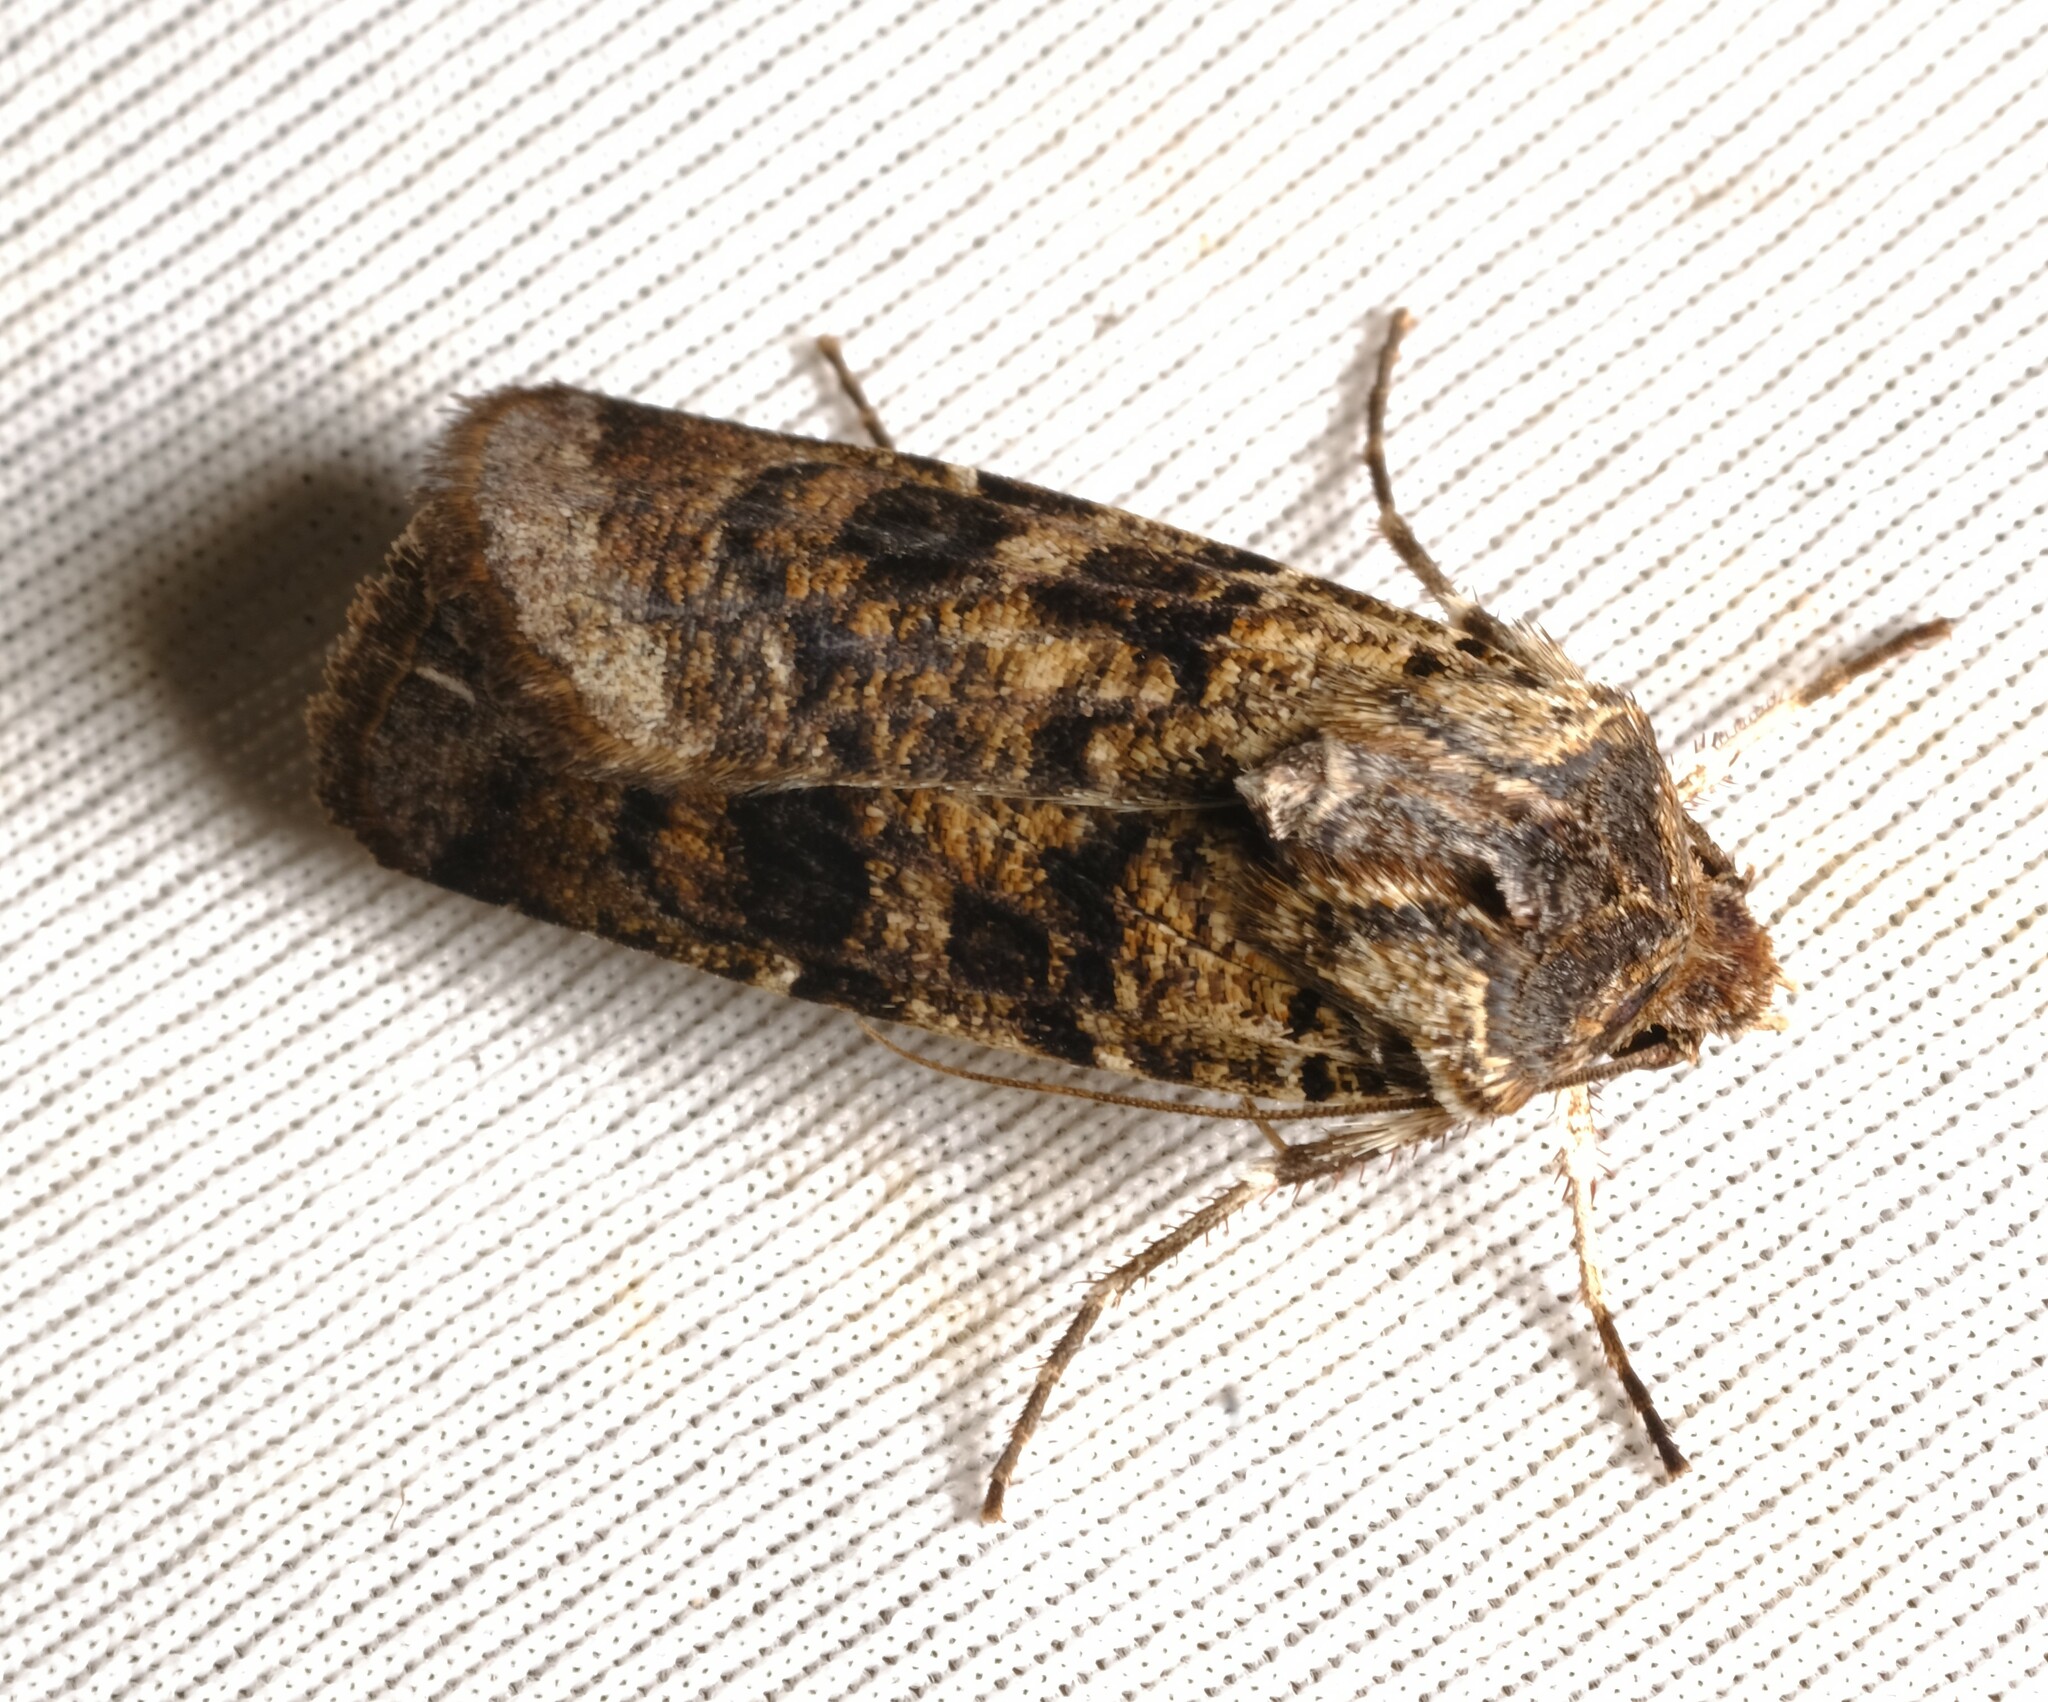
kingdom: Animalia
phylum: Arthropoda
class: Insecta
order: Lepidoptera
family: Noctuidae
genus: Agrotis
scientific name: Agrotis porphyricollis
